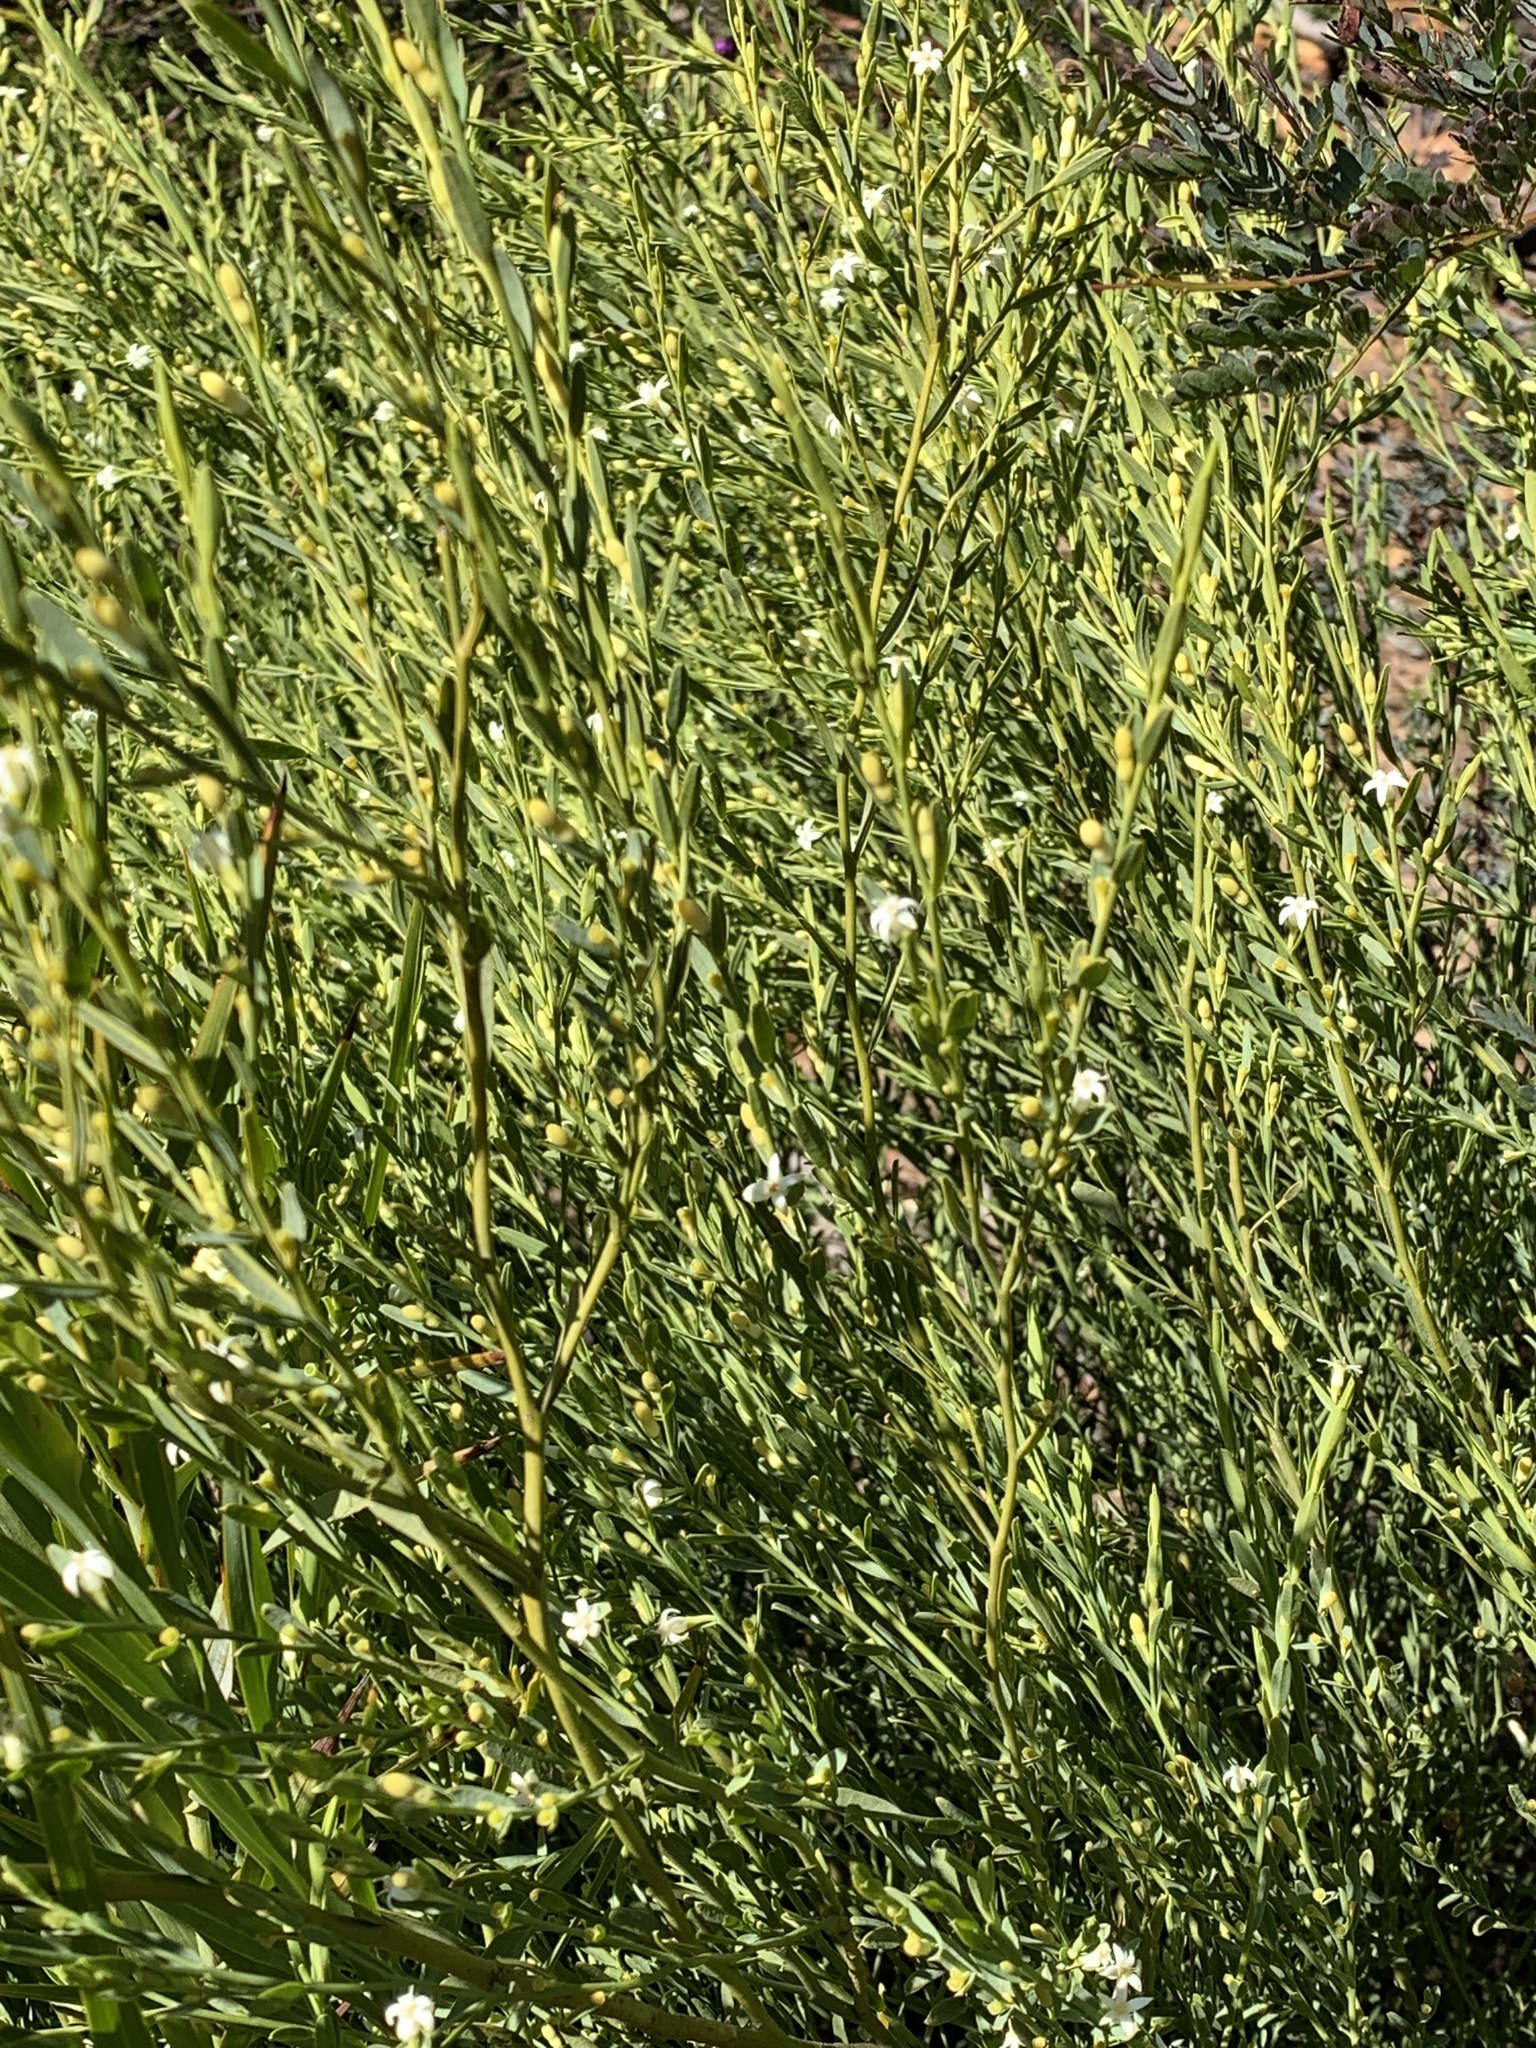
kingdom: Plantae
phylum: Tracheophyta
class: Magnoliopsida
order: Santalales
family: Olacaceae
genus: Olax
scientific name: Olax stricta
